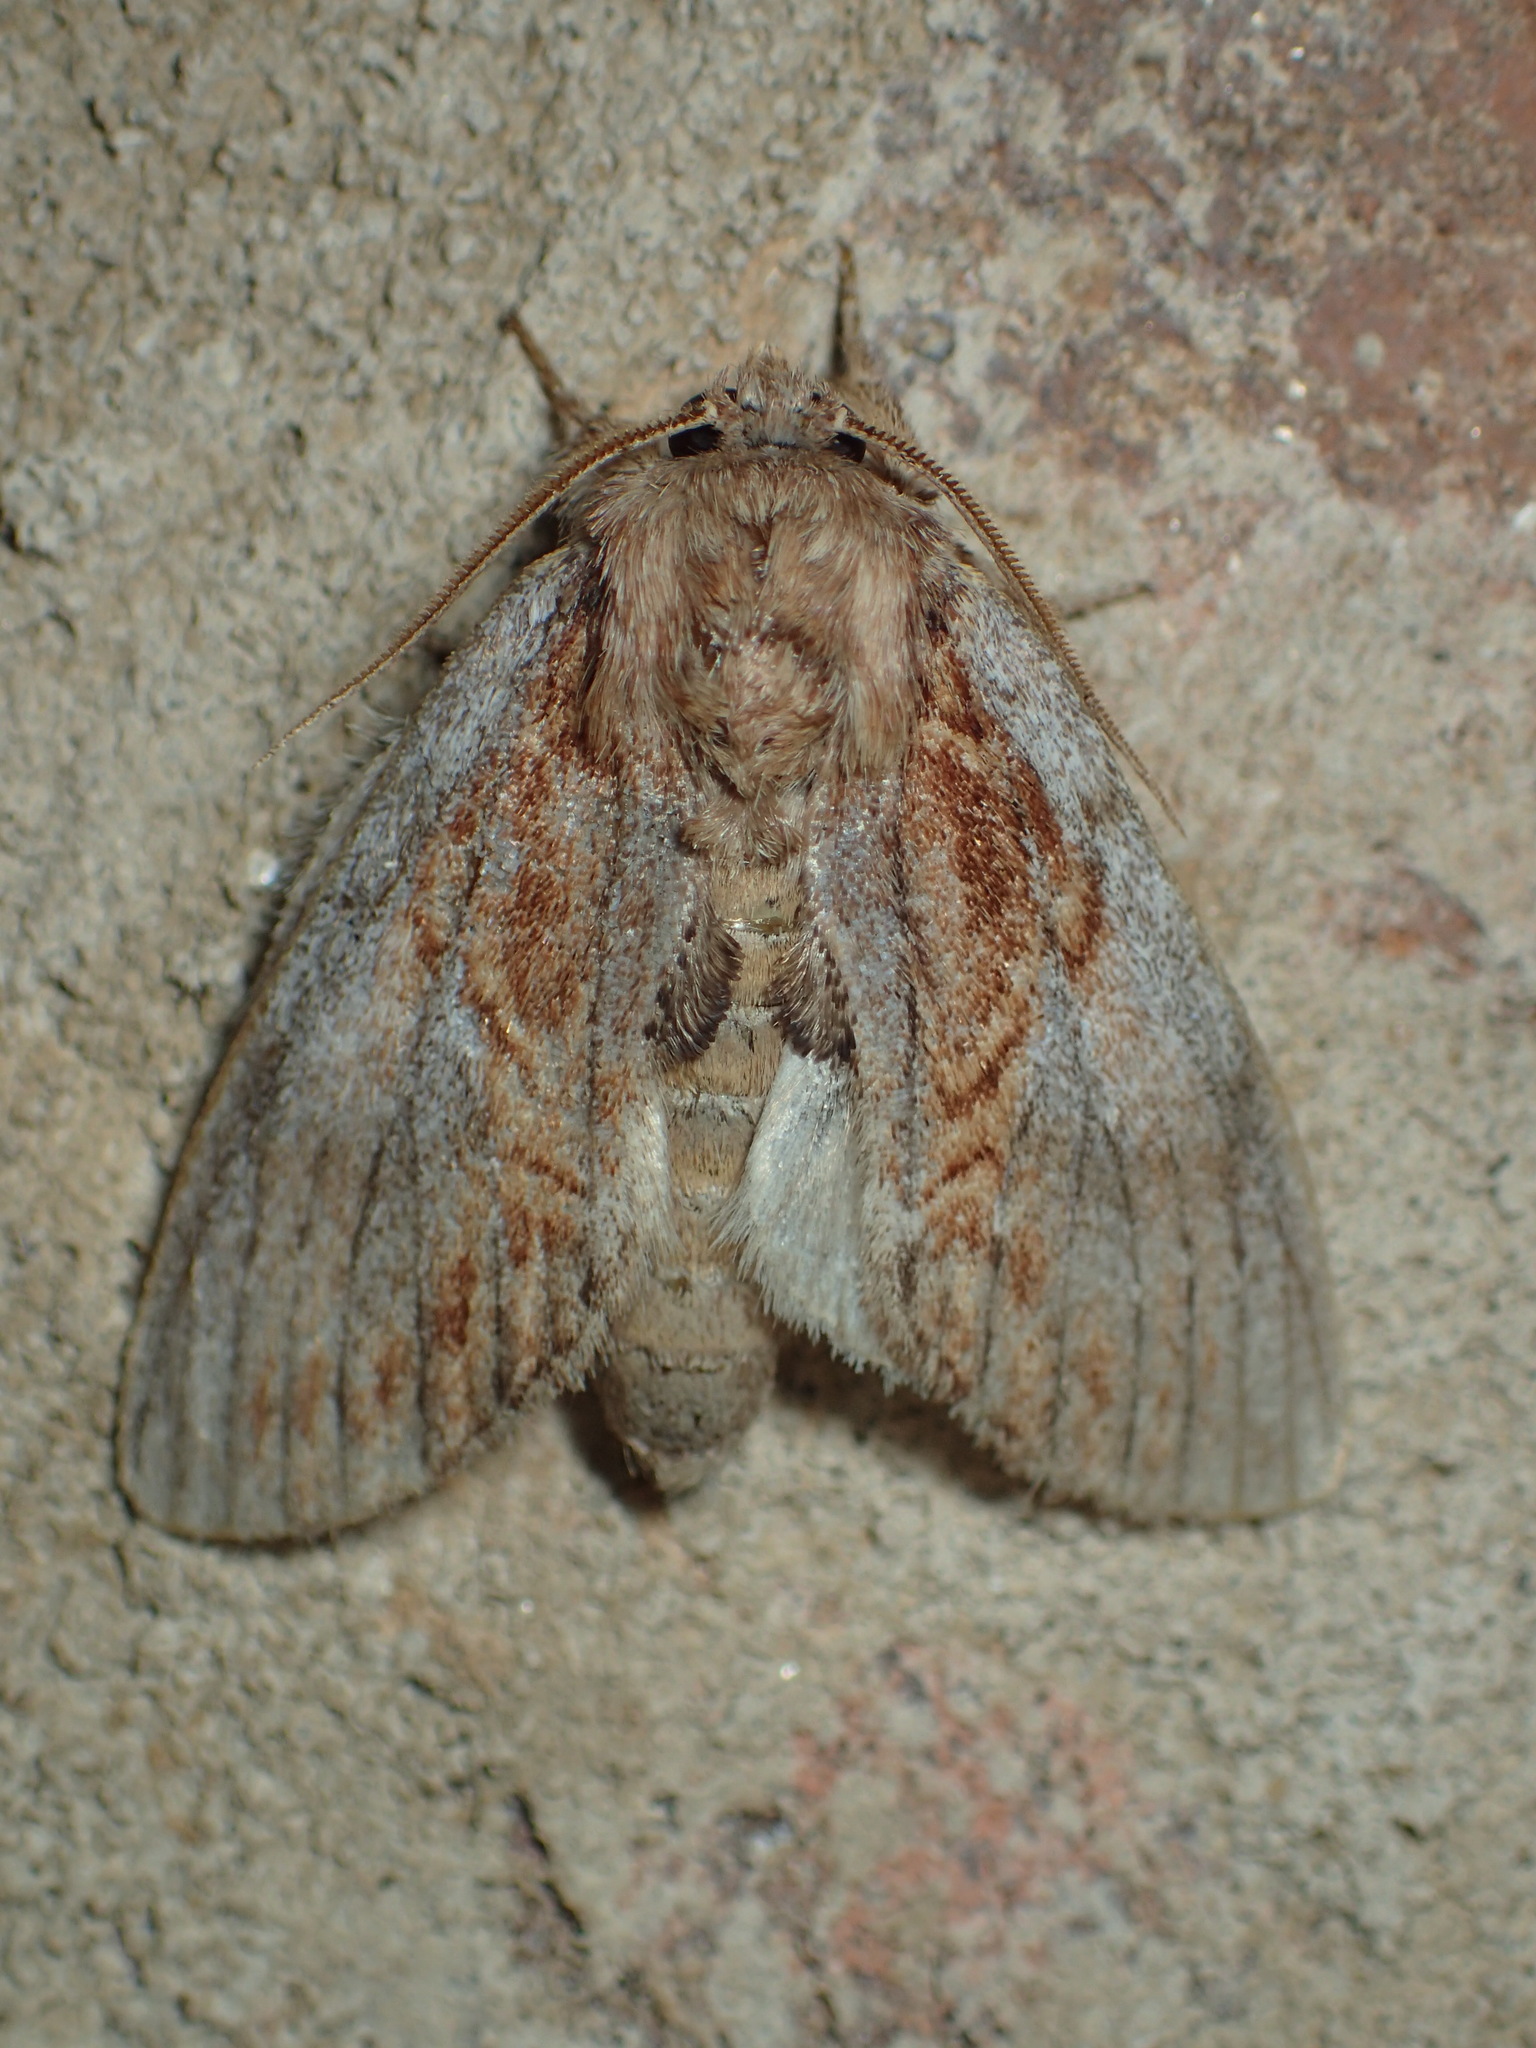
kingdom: Animalia
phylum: Arthropoda
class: Insecta
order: Lepidoptera
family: Notodontidae
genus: Peridea
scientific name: Peridea basitriens
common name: Oval-based prominent
